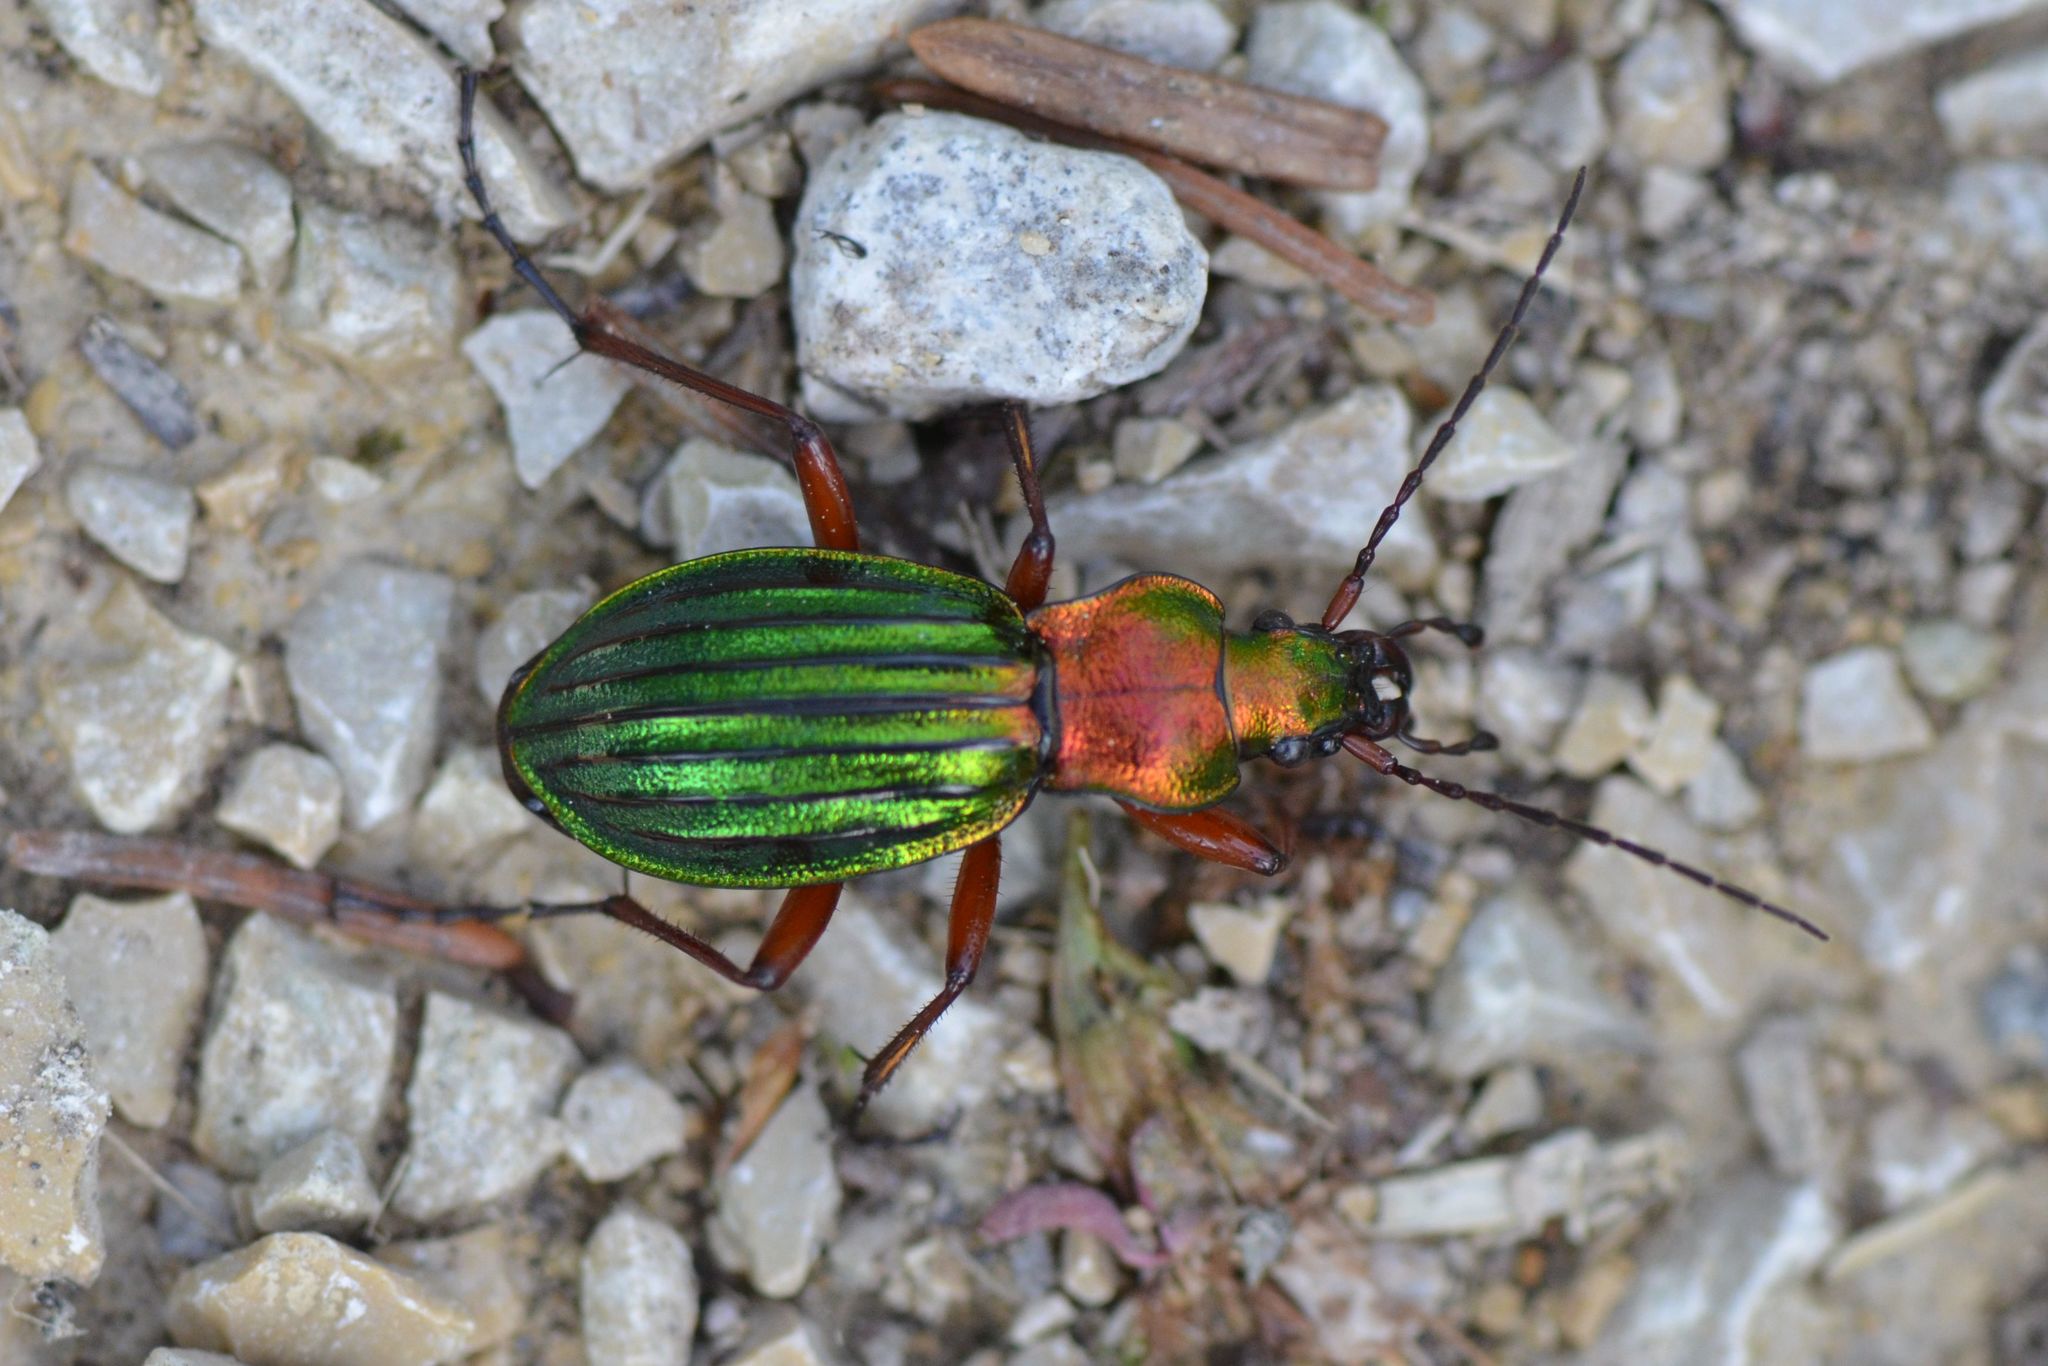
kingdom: Animalia
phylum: Arthropoda
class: Insecta
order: Coleoptera
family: Carabidae
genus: Carabus
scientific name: Carabus auronitens
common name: Carabus auronitens
